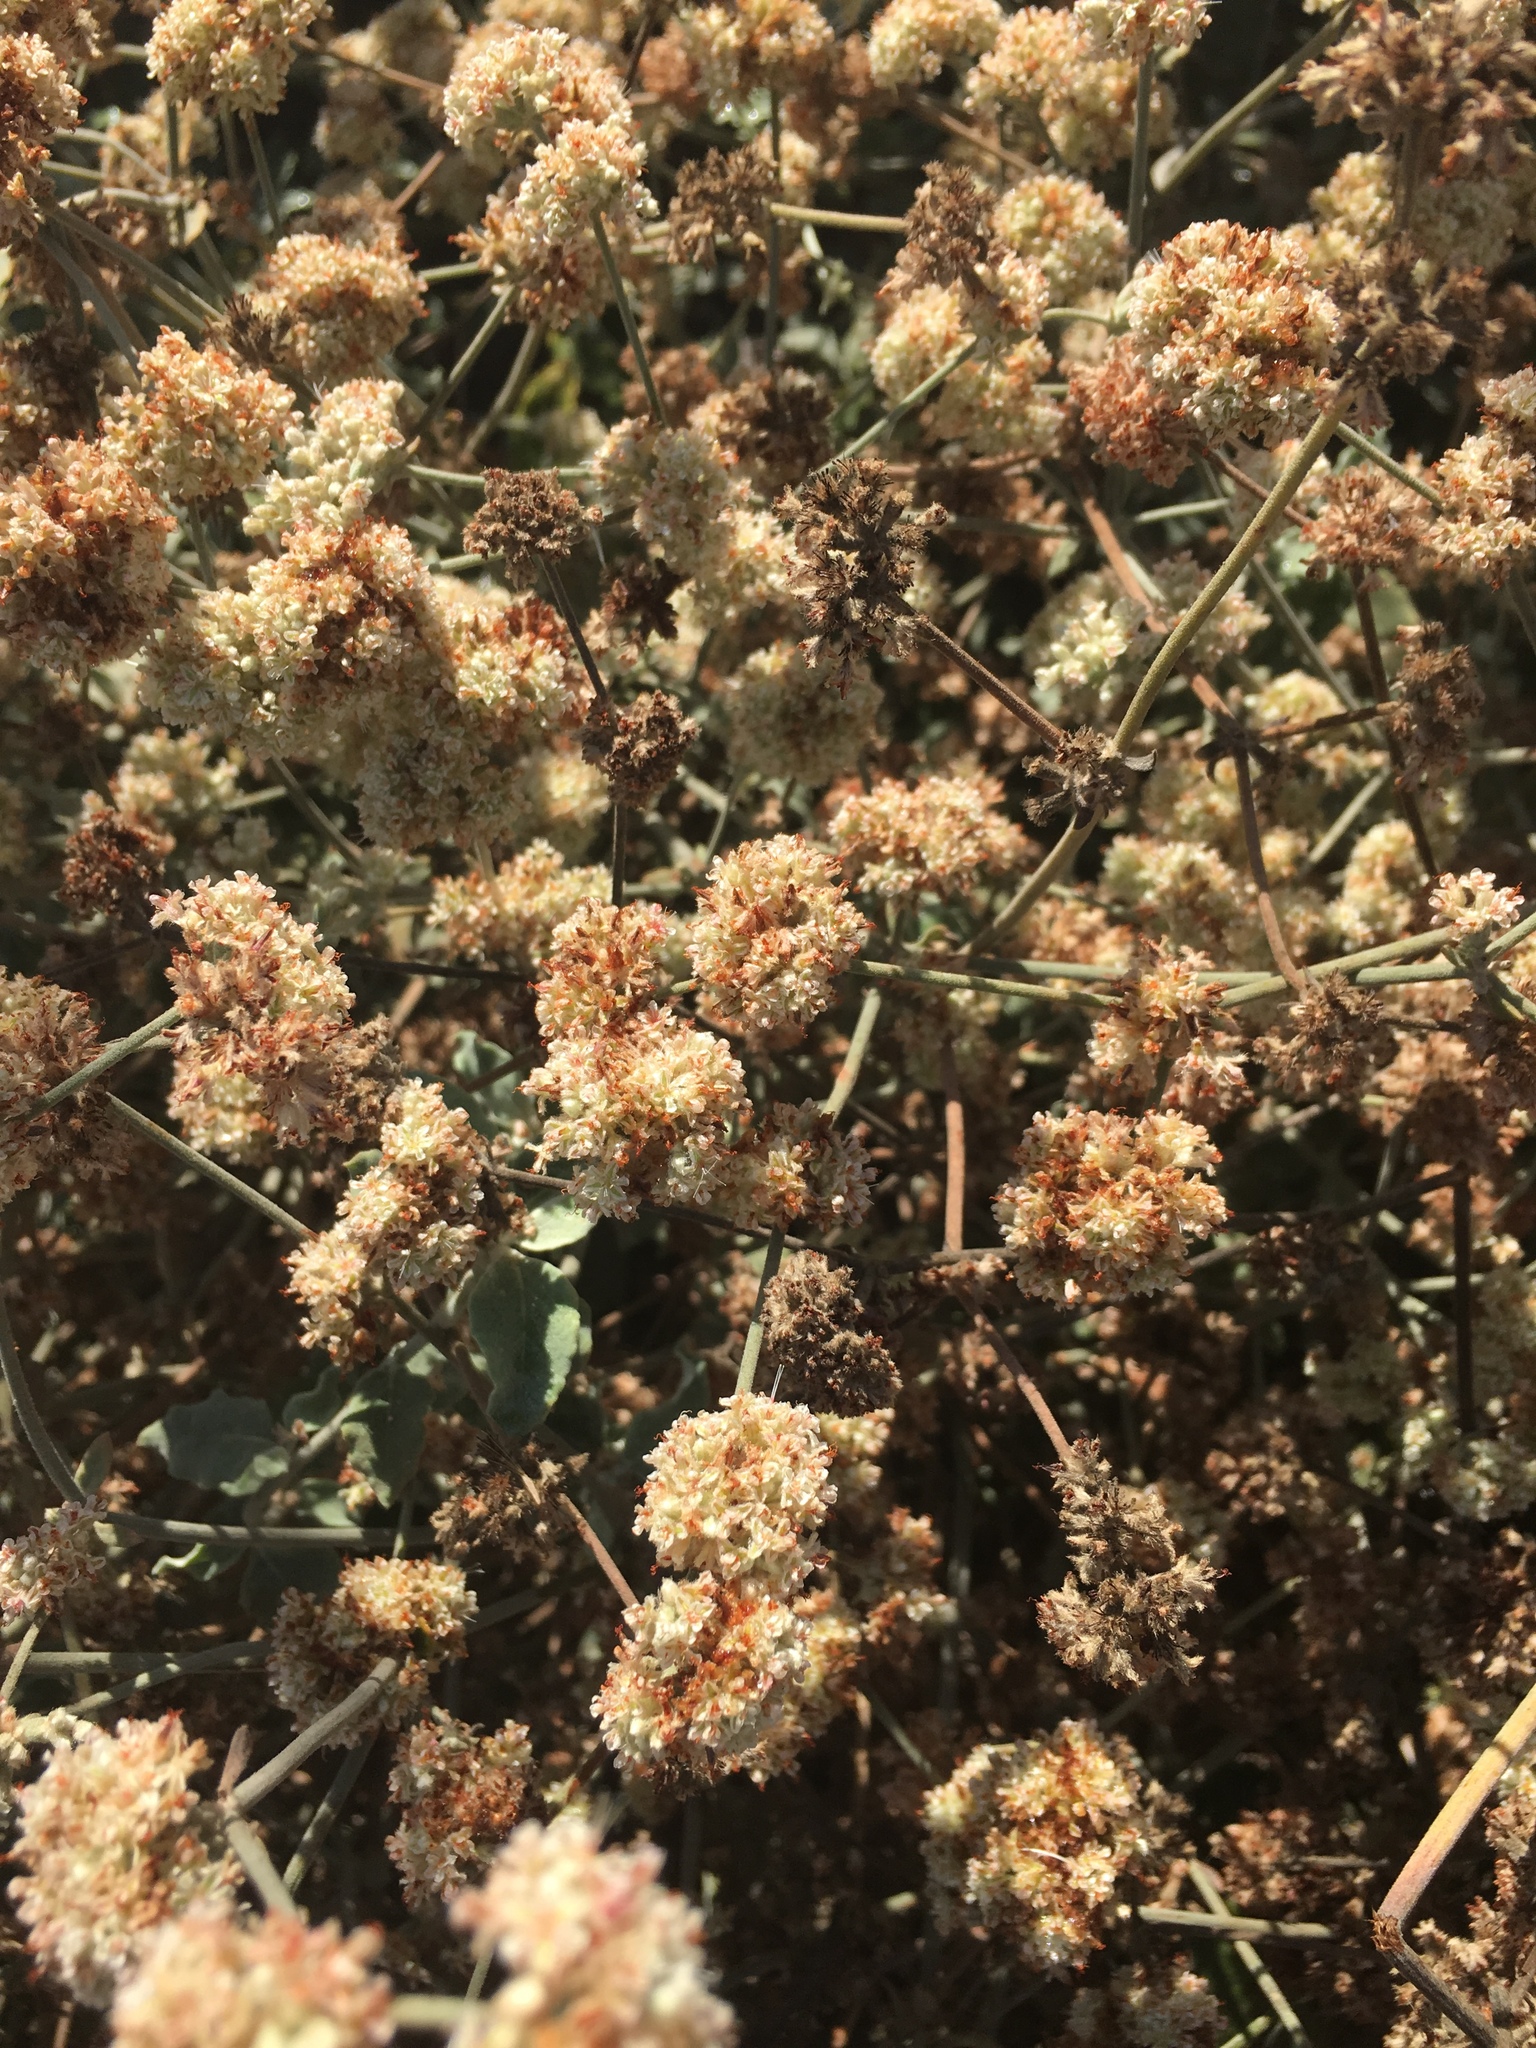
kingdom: Plantae
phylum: Tracheophyta
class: Magnoliopsida
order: Caryophyllales
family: Polygonaceae
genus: Eriogonum
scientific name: Eriogonum cinereum
